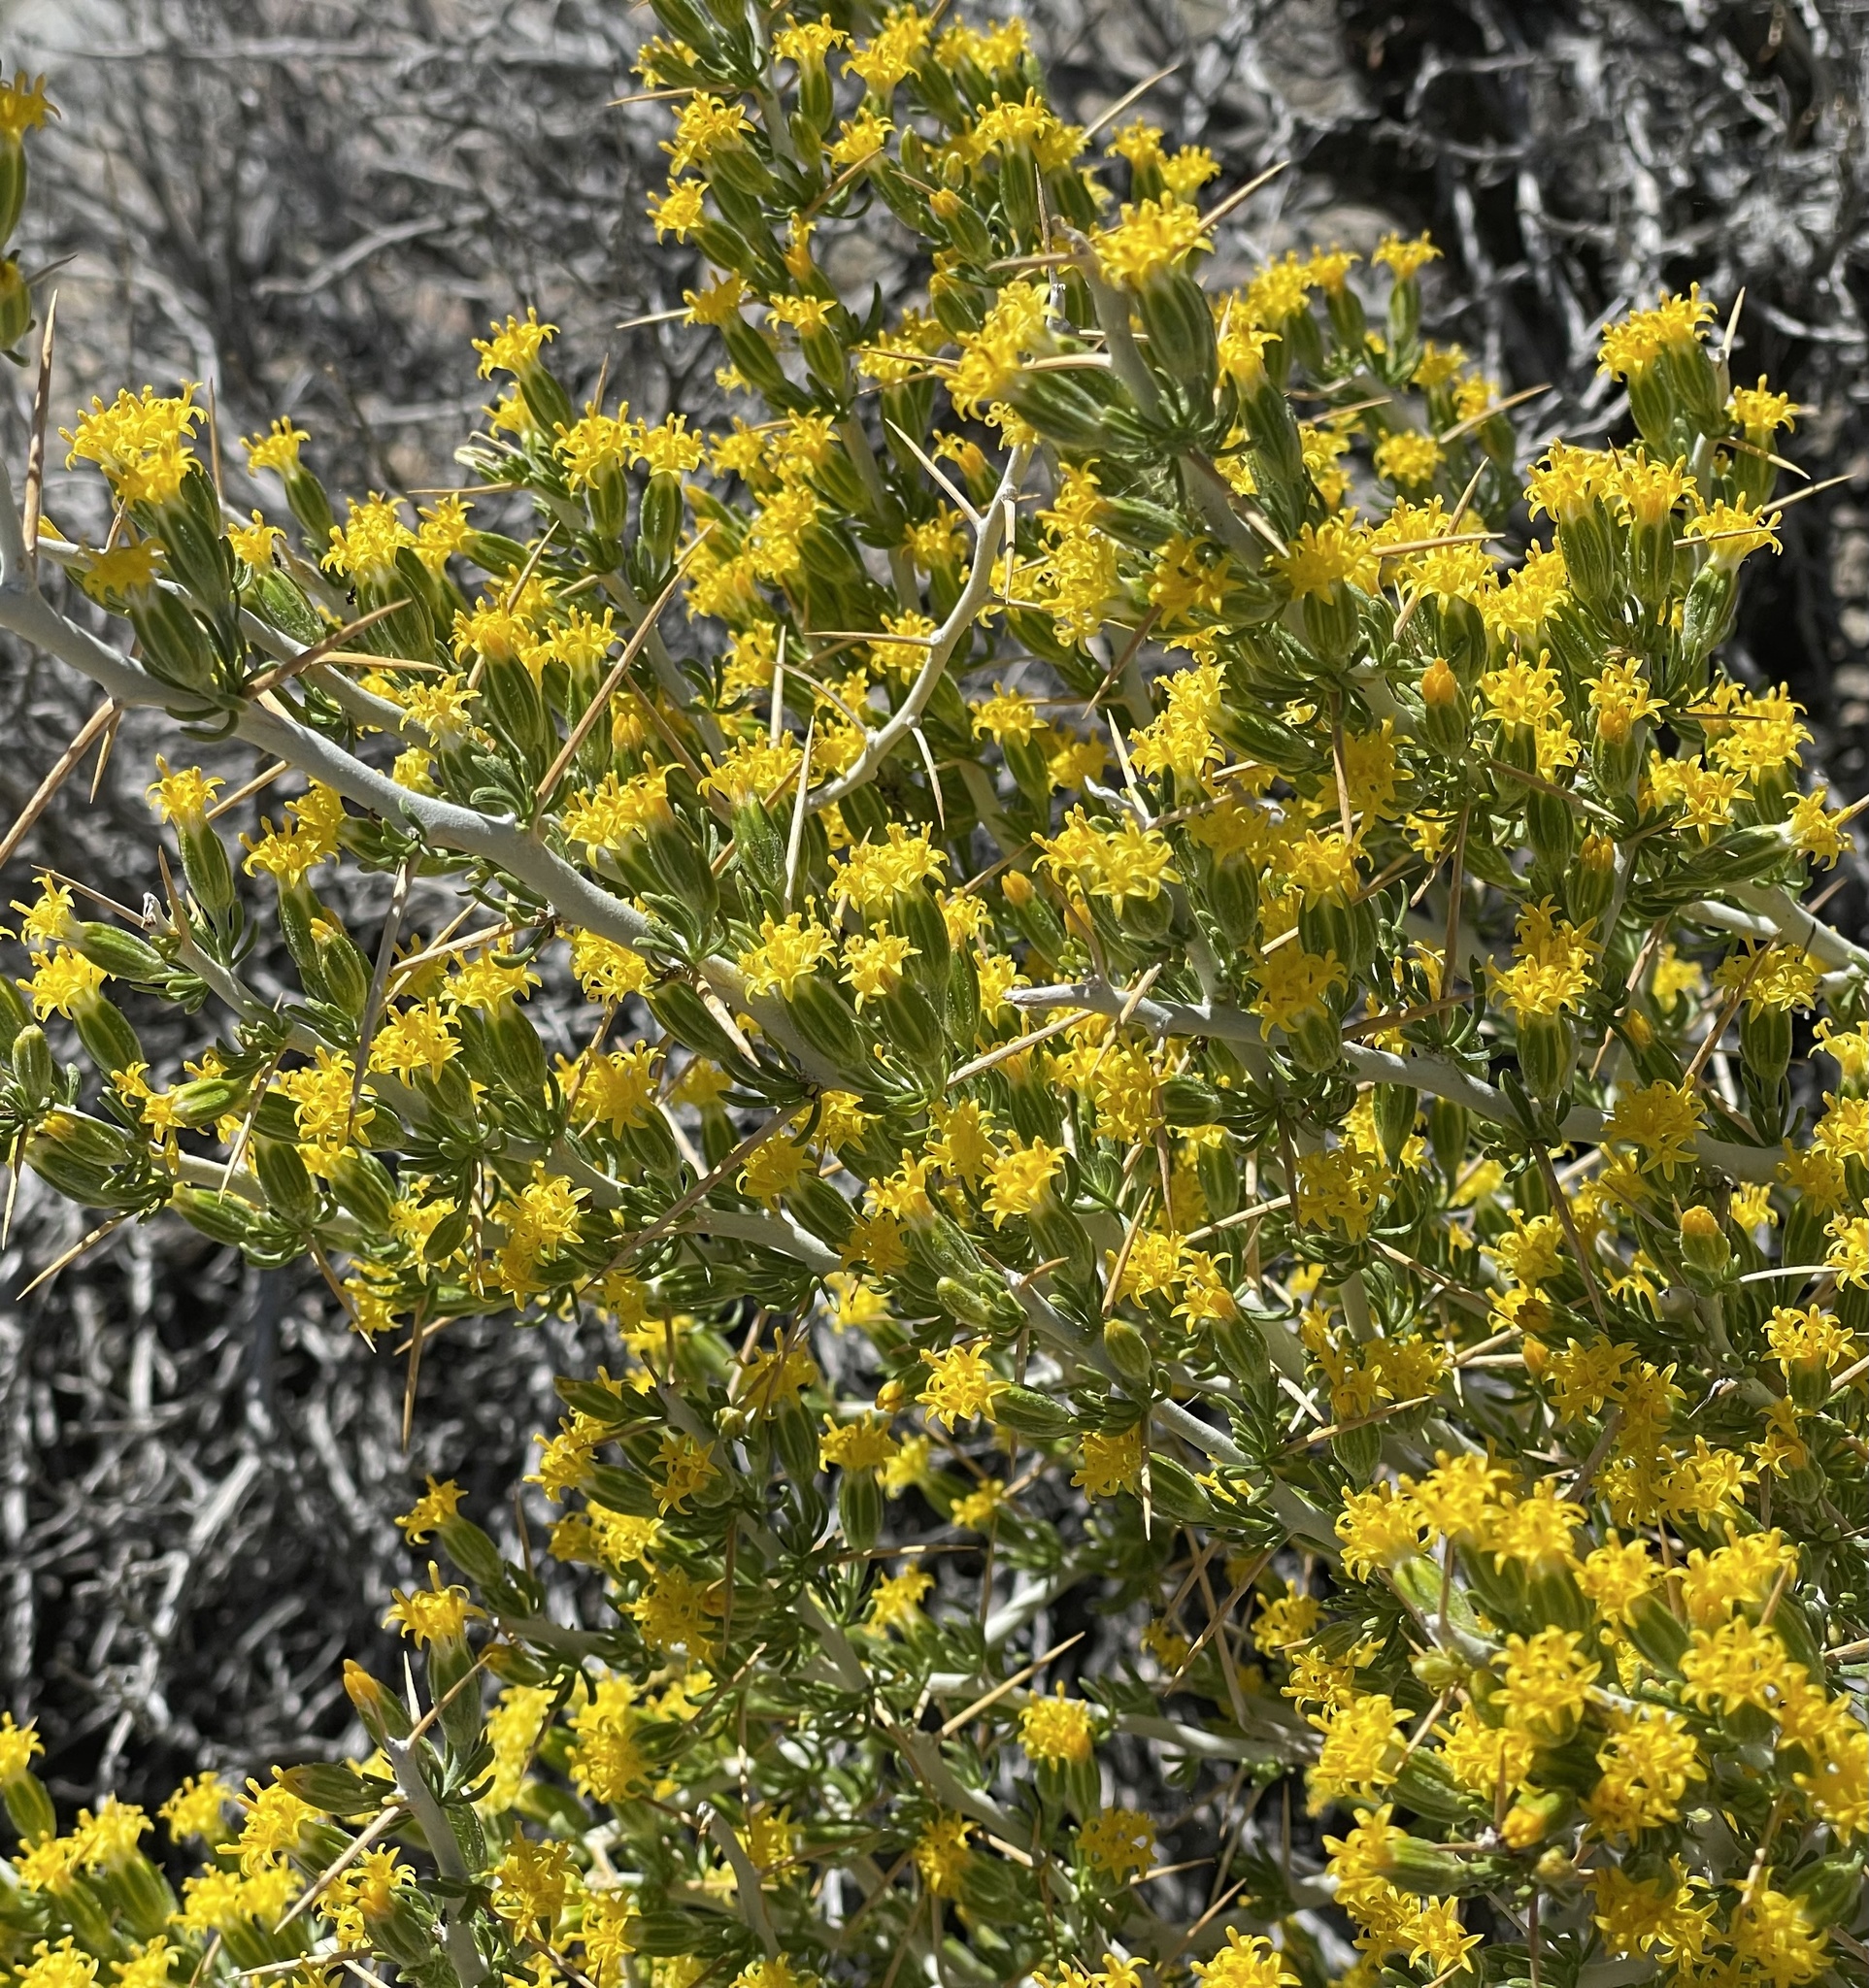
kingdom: Plantae
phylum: Tracheophyta
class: Magnoliopsida
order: Asterales
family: Asteraceae
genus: Tetradymia
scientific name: Tetradymia axillaris
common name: Long-spine horsebrush
